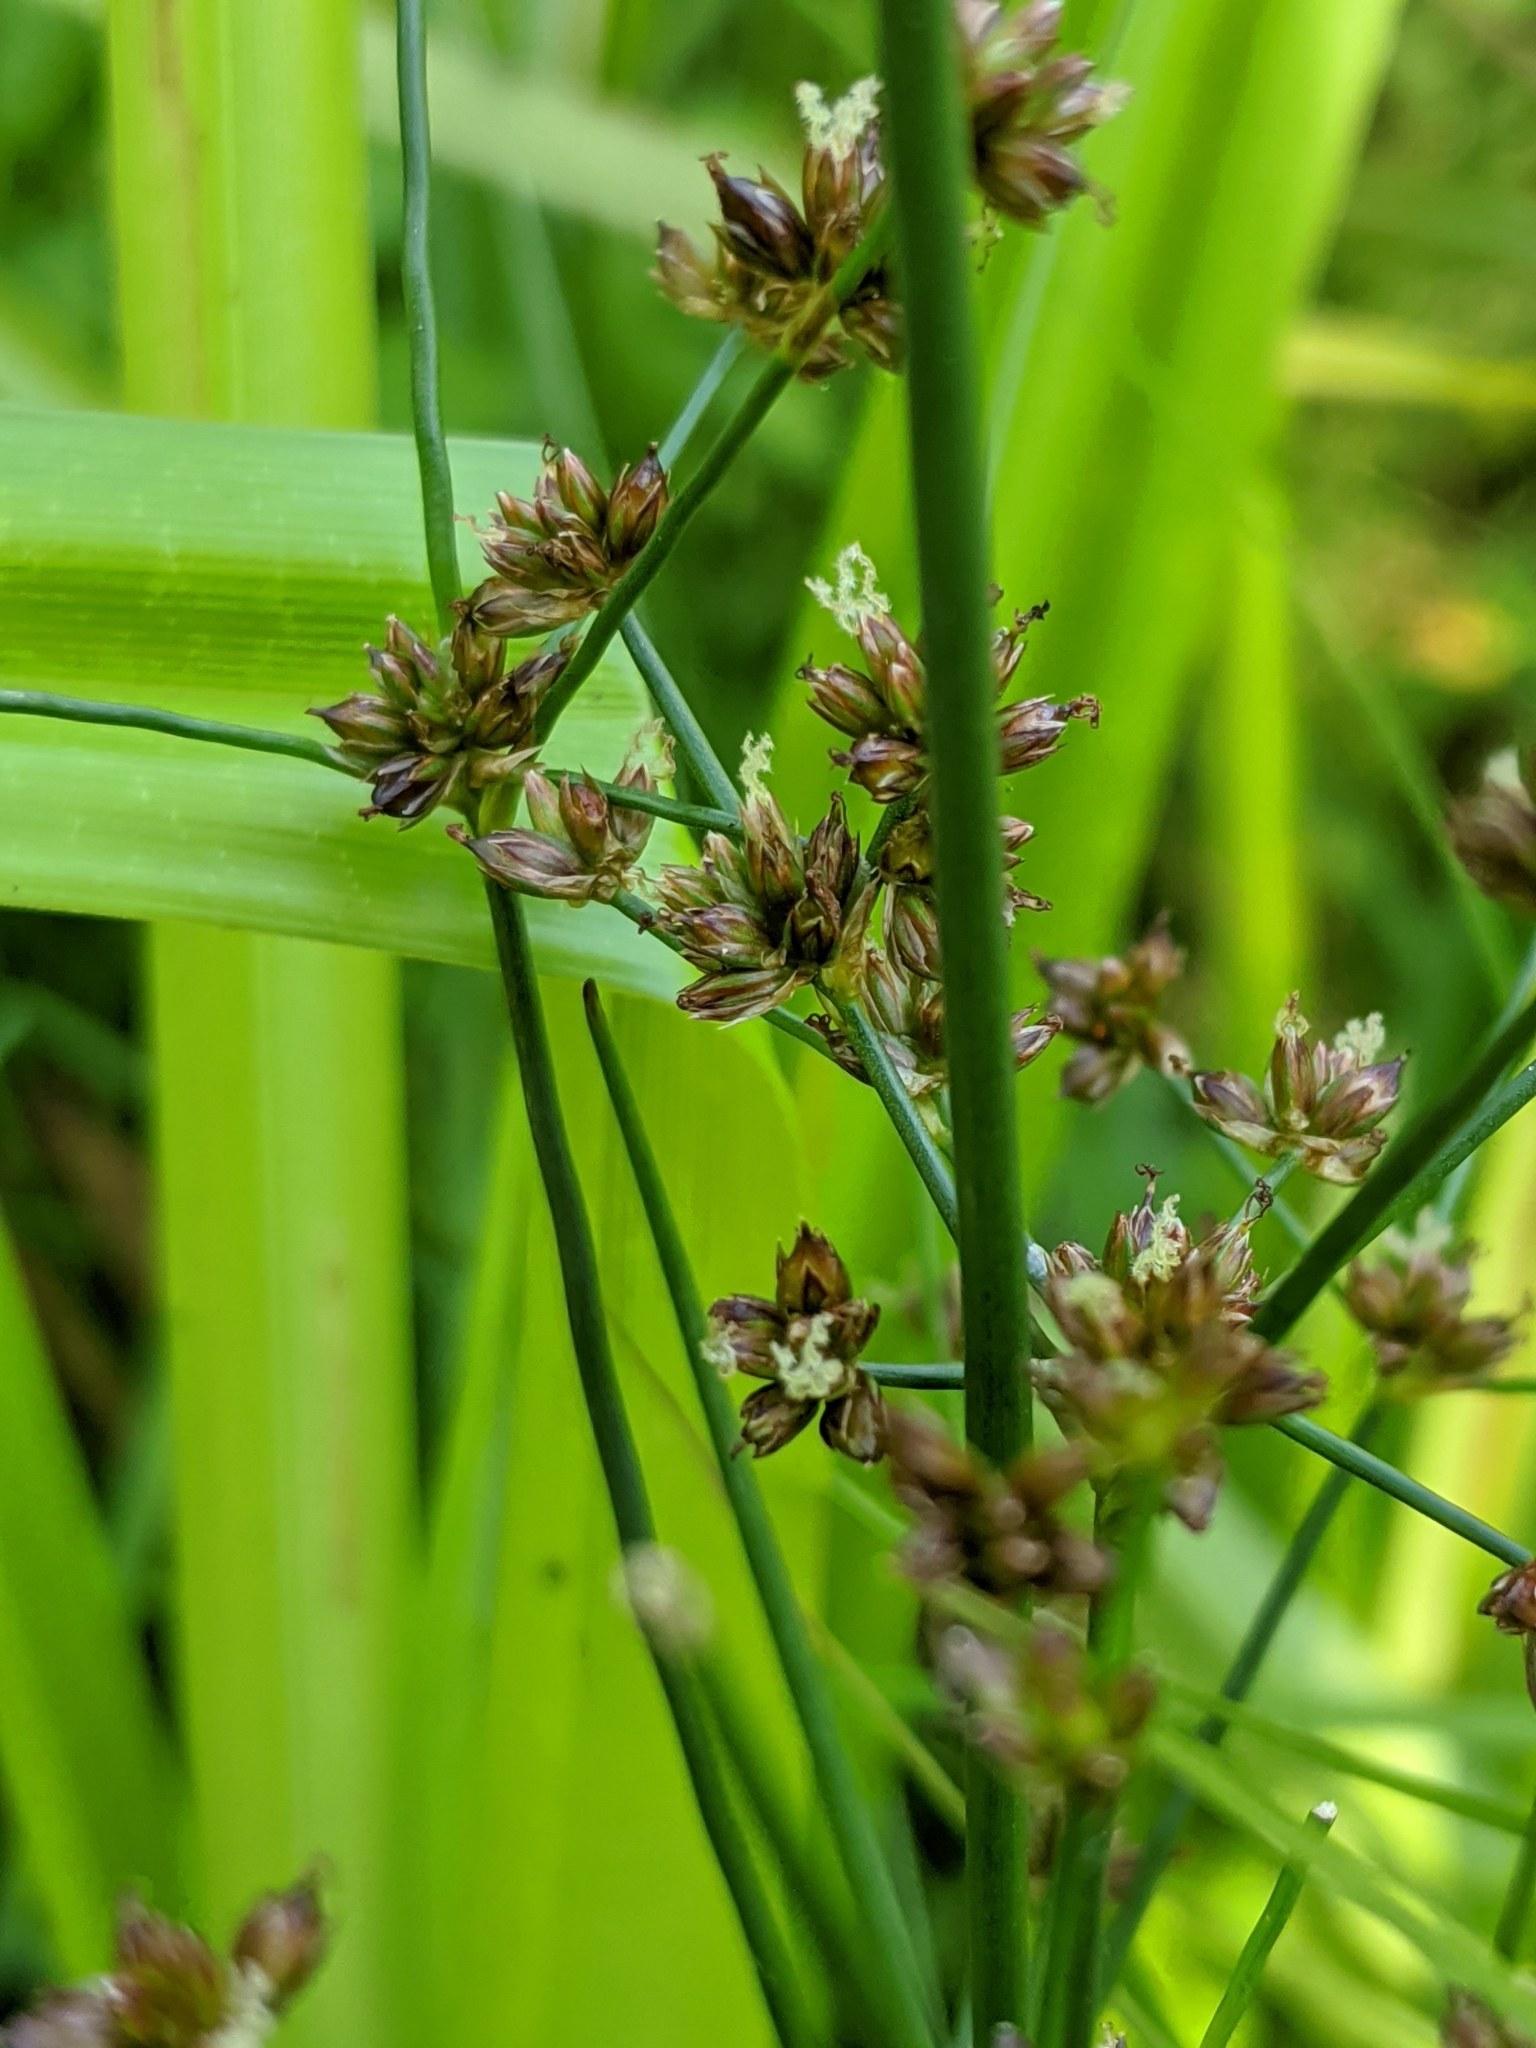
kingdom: Plantae
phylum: Tracheophyta
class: Liliopsida
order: Poales
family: Cyperaceae
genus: Scirpus
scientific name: Scirpus microcarpus
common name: Panicled bulrush
